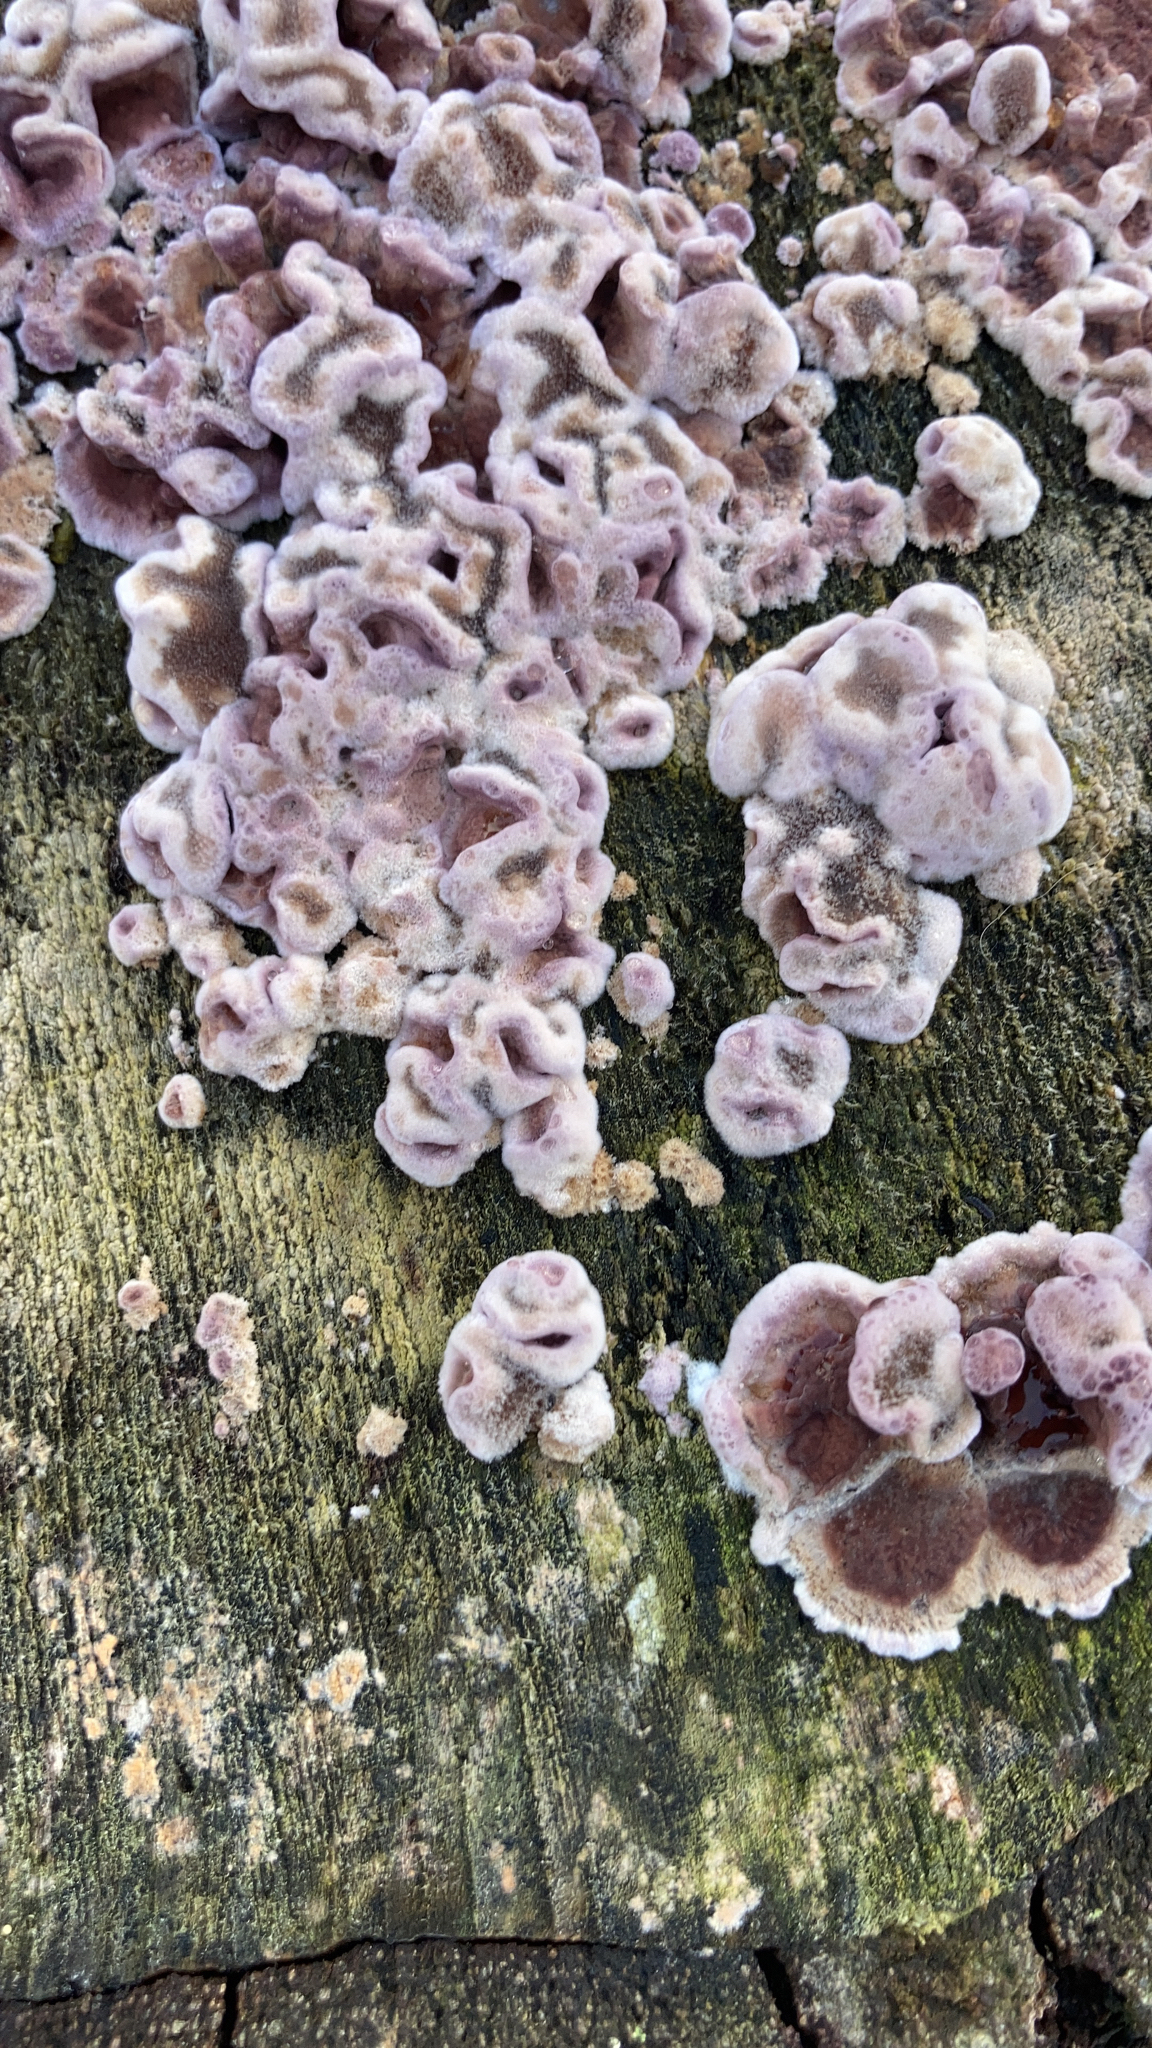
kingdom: Fungi
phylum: Basidiomycota
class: Agaricomycetes
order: Agaricales
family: Cyphellaceae
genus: Chondrostereum
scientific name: Chondrostereum purpureum
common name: Silver leaf disease
